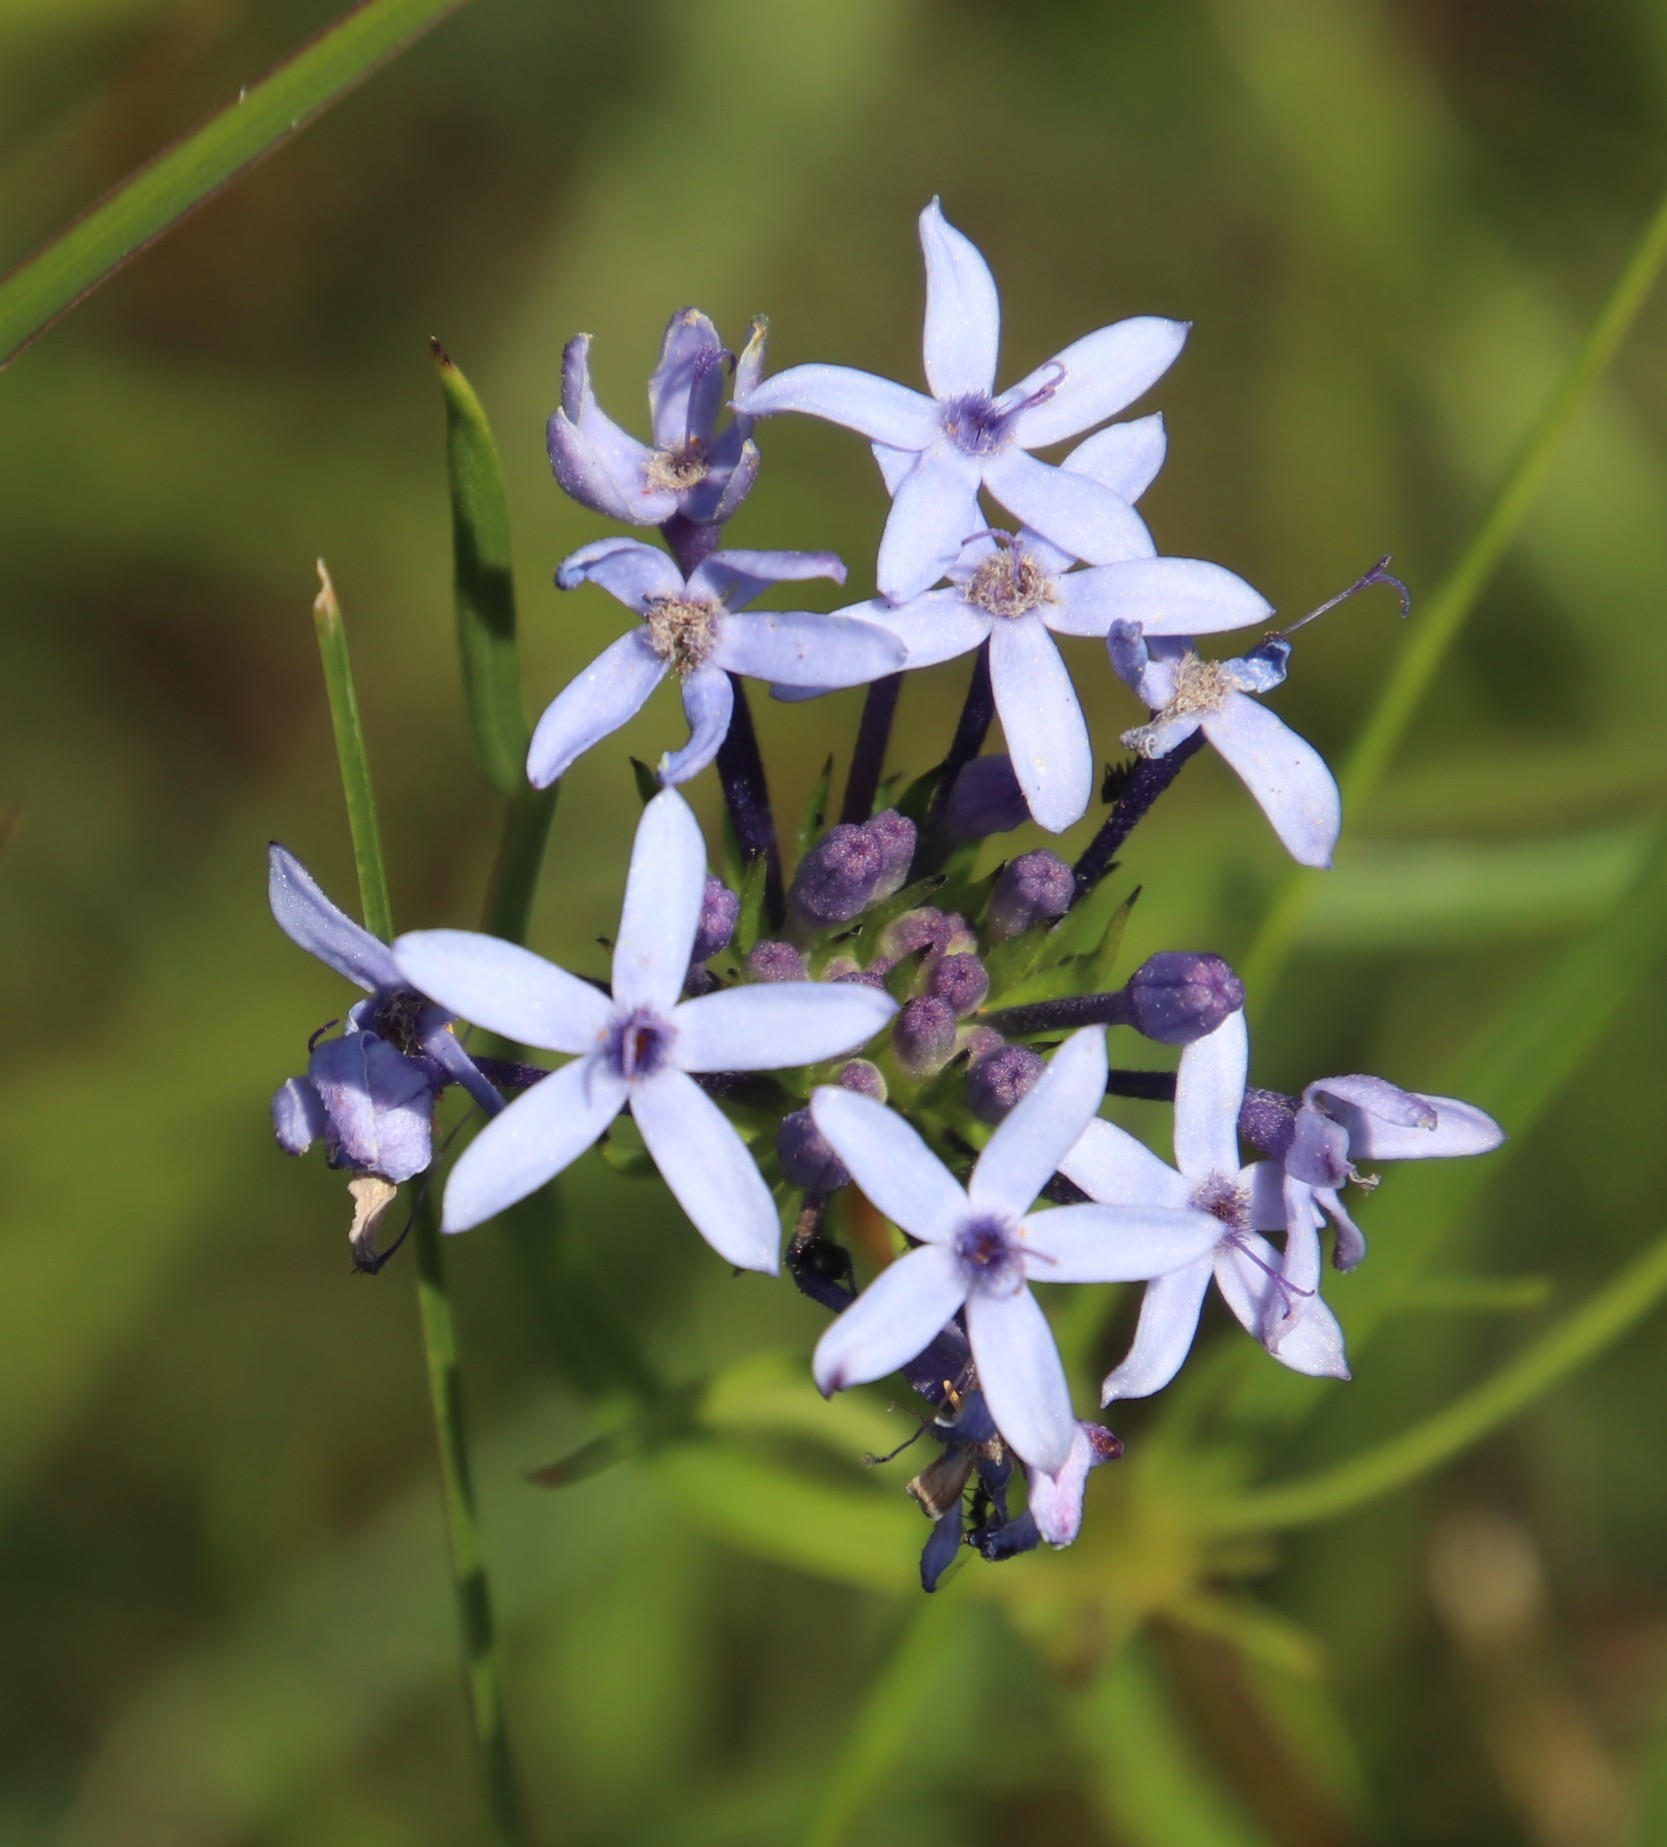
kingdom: Plantae
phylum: Tracheophyta
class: Magnoliopsida
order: Gentianales
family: Rubiaceae
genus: Pentanisia
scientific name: Pentanisia prunelloides
